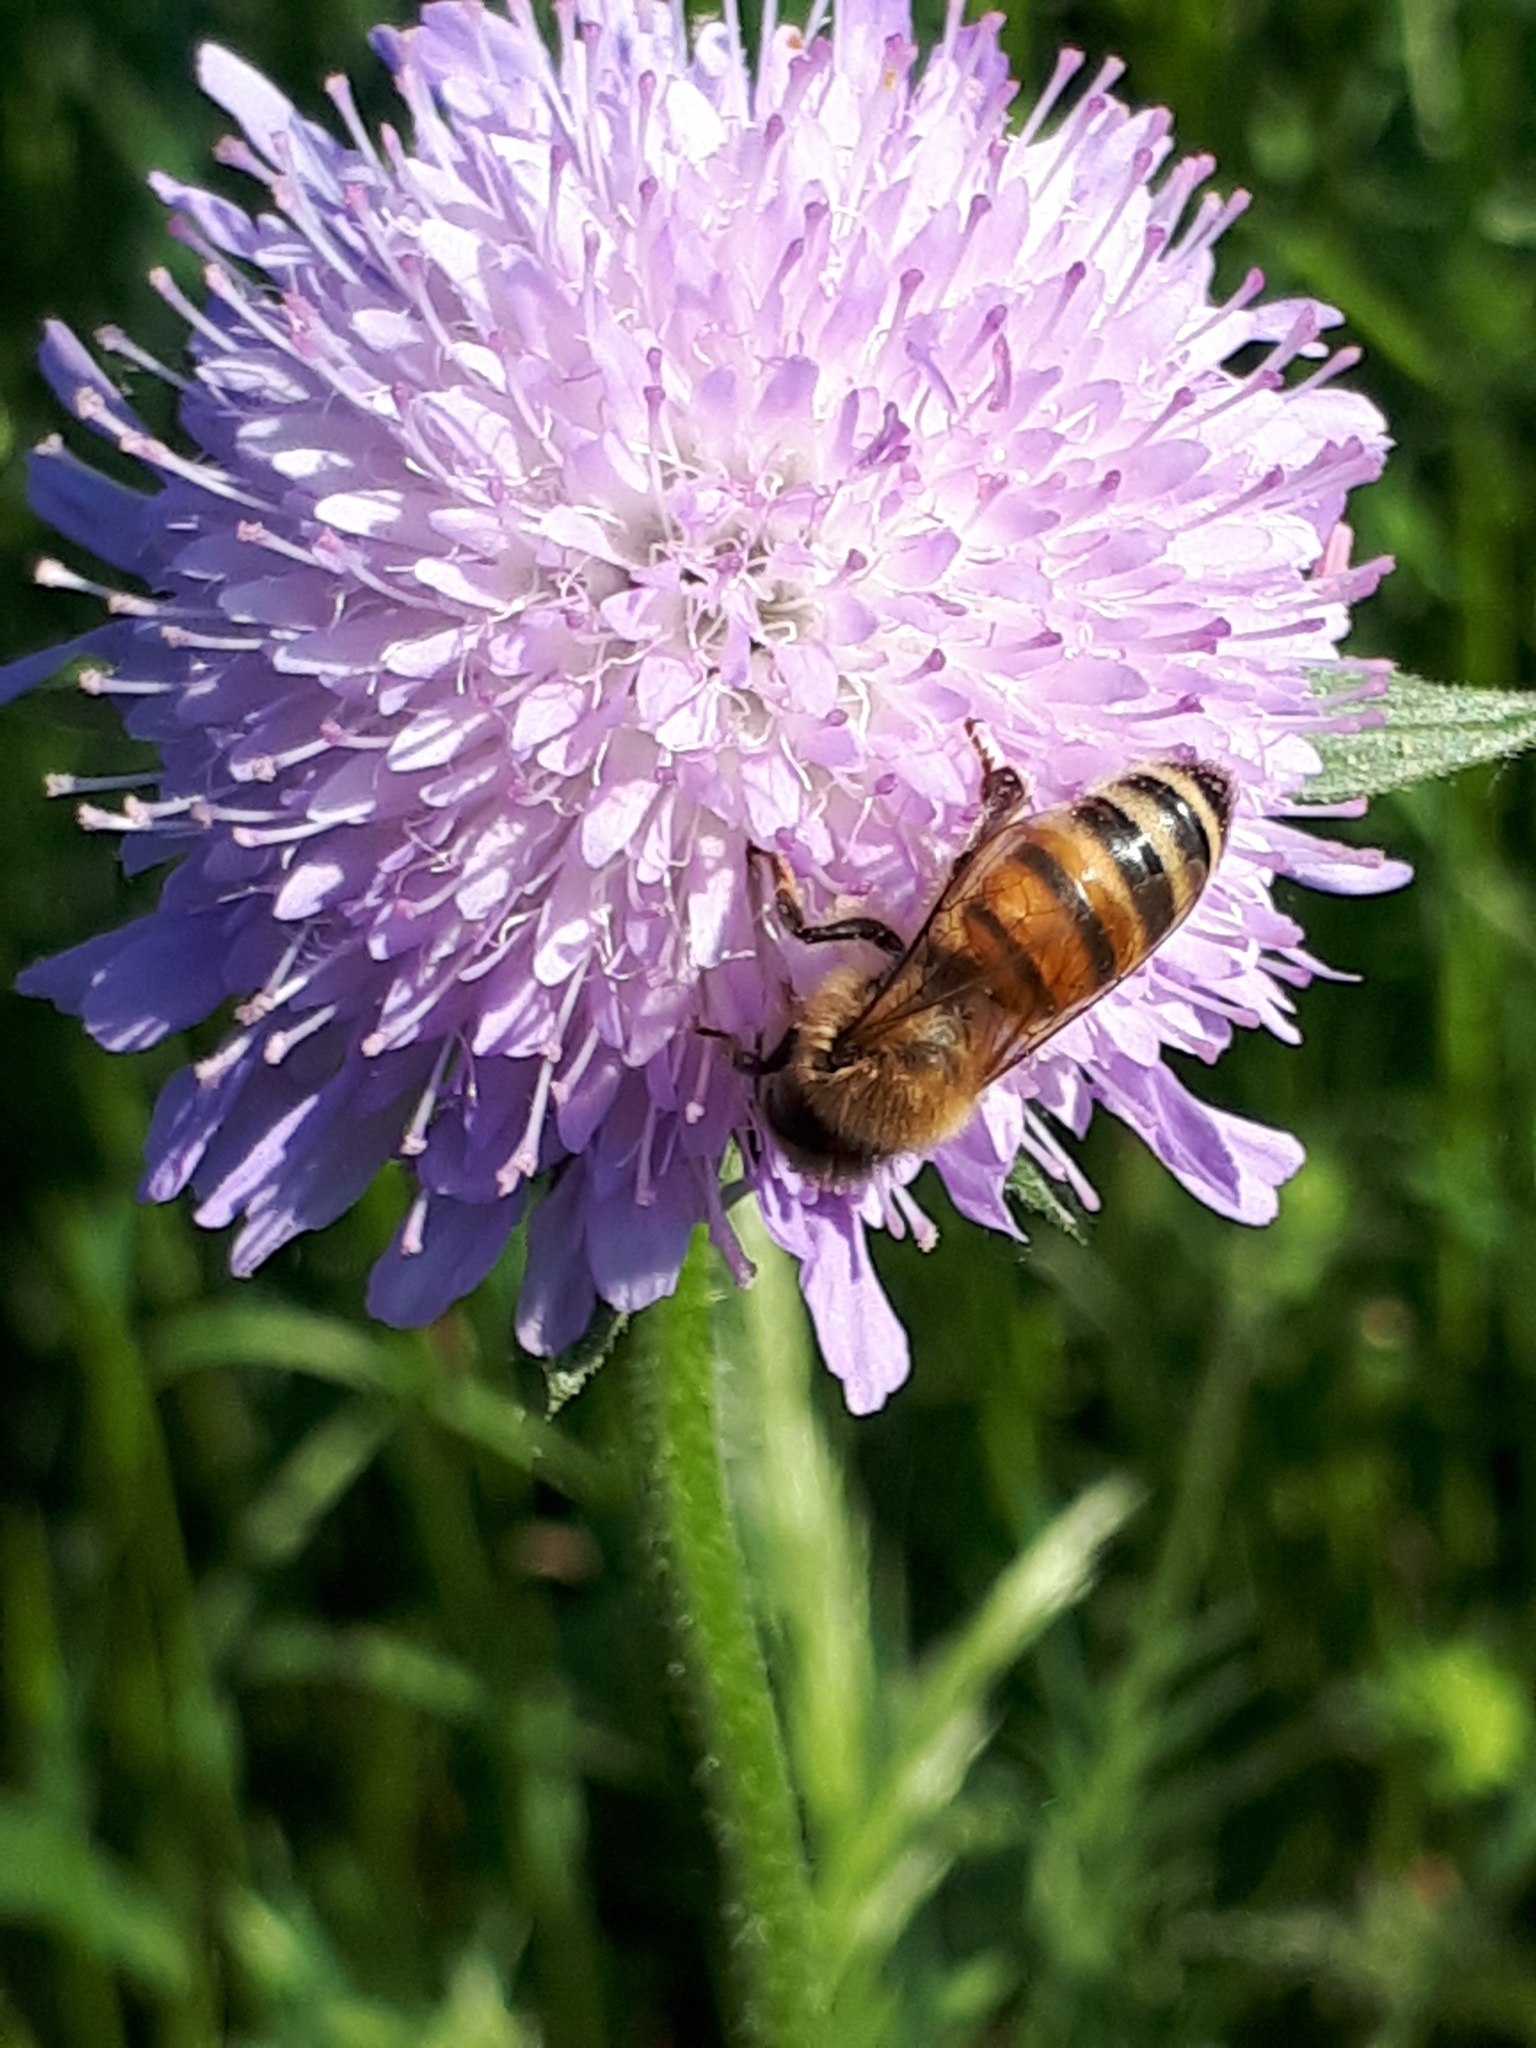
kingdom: Animalia
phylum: Arthropoda
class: Insecta
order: Hymenoptera
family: Apidae
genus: Apis
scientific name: Apis mellifera
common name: Honey bee
